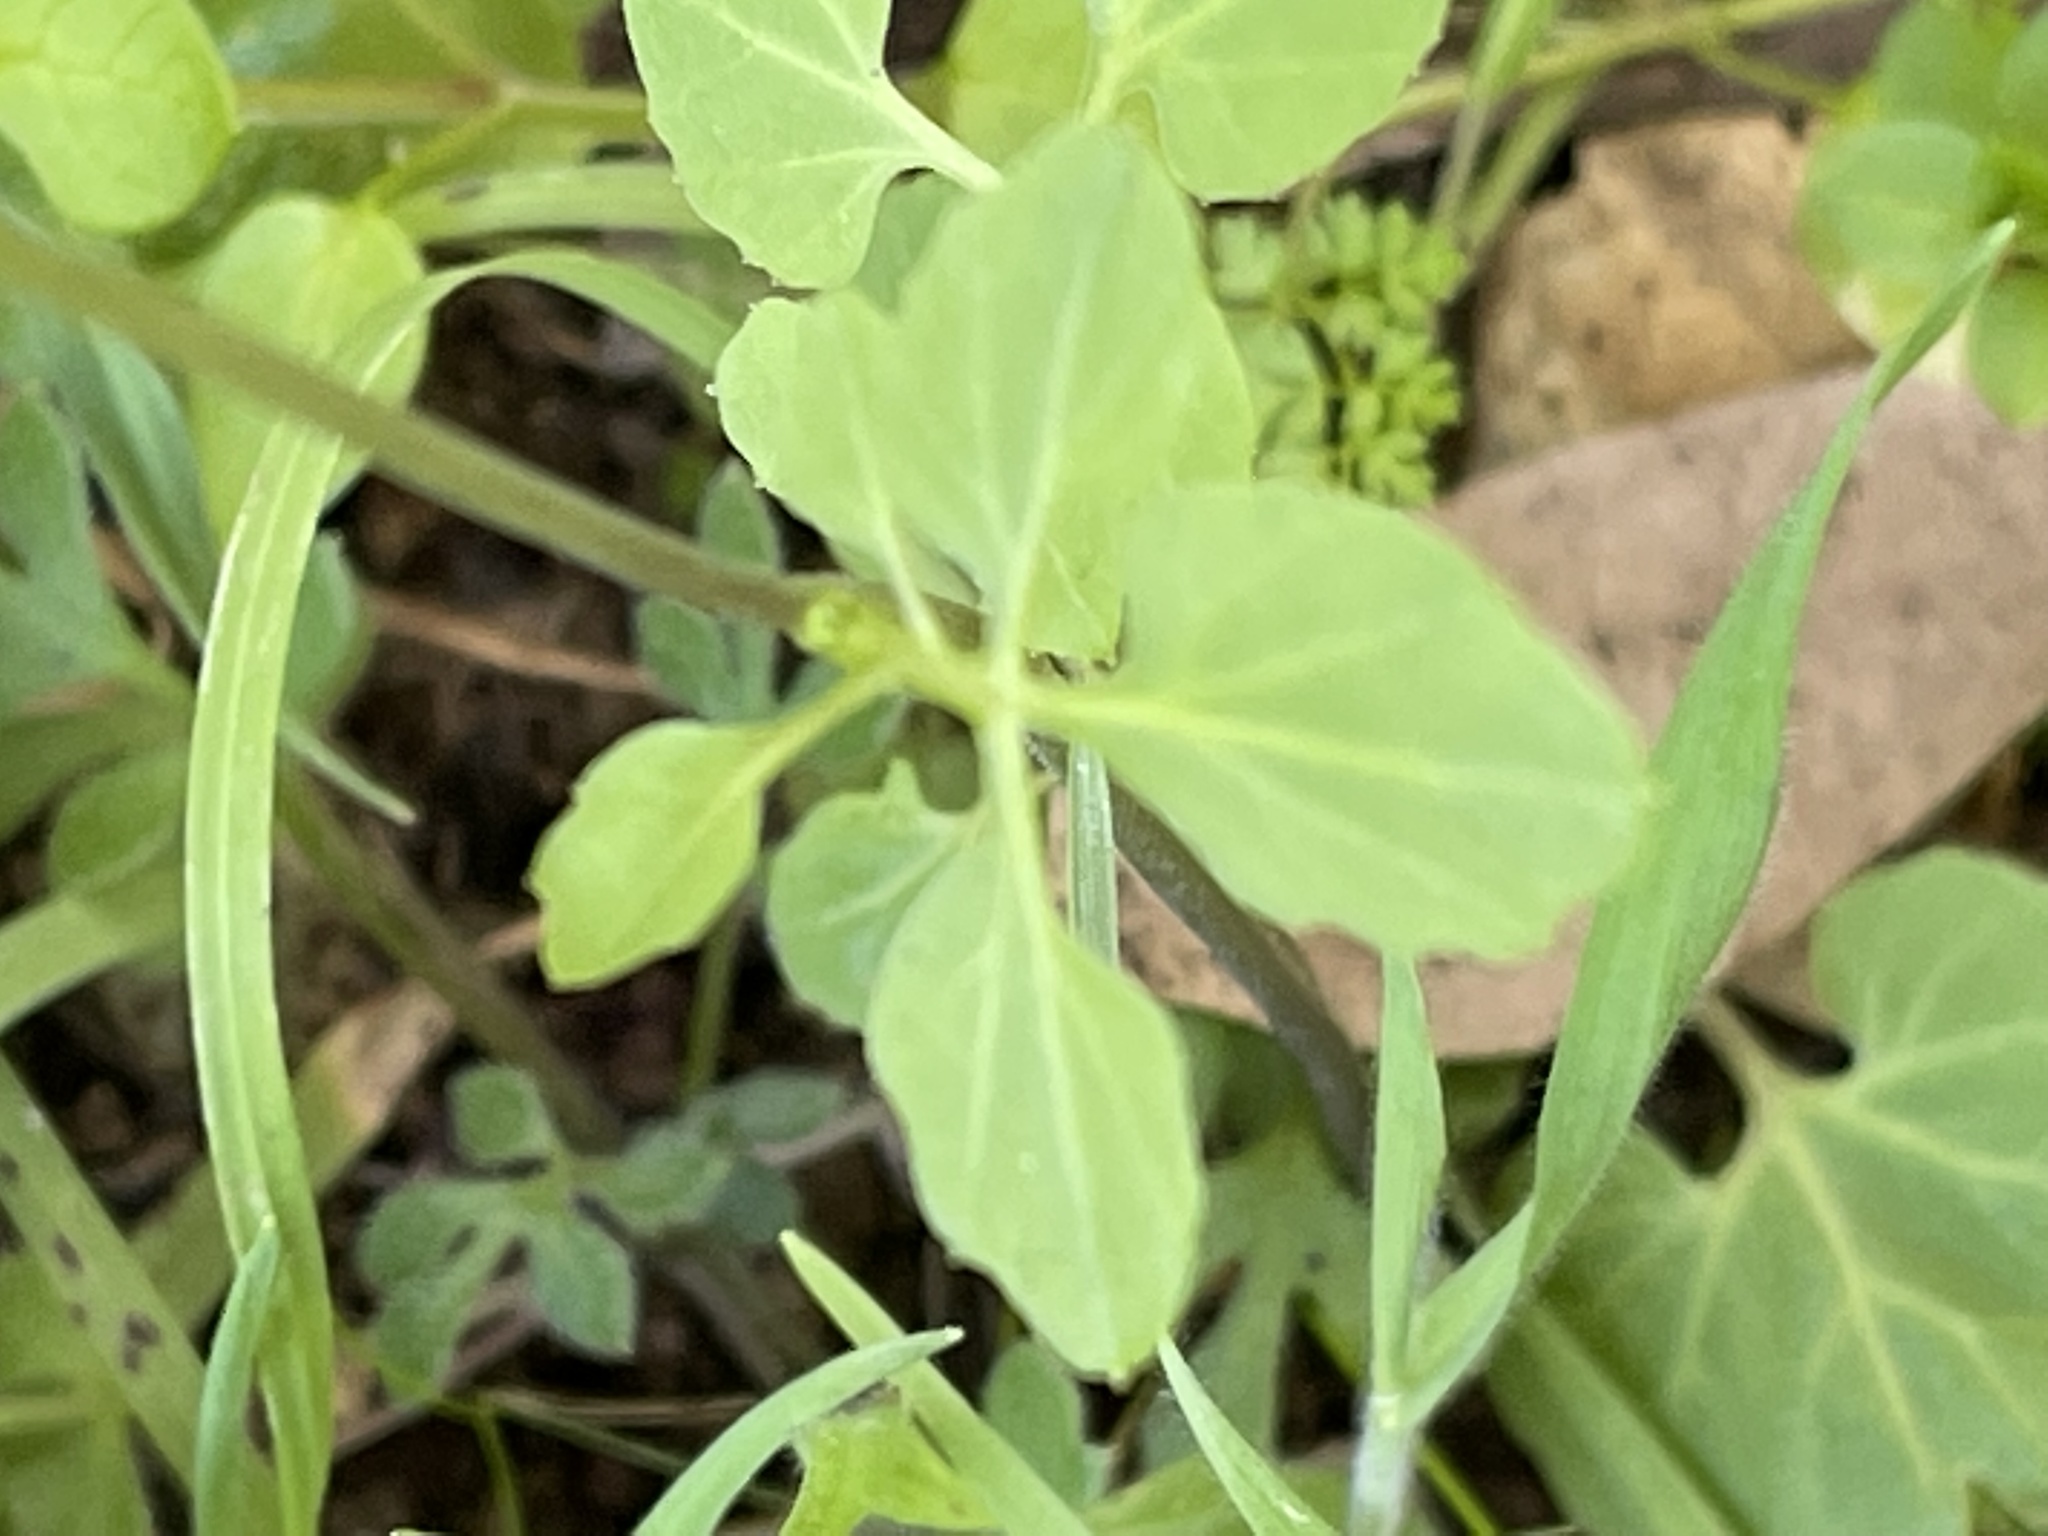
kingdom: Plantae
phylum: Tracheophyta
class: Magnoliopsida
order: Brassicales
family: Brassicaceae
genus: Cardamine
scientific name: Cardamine californica
